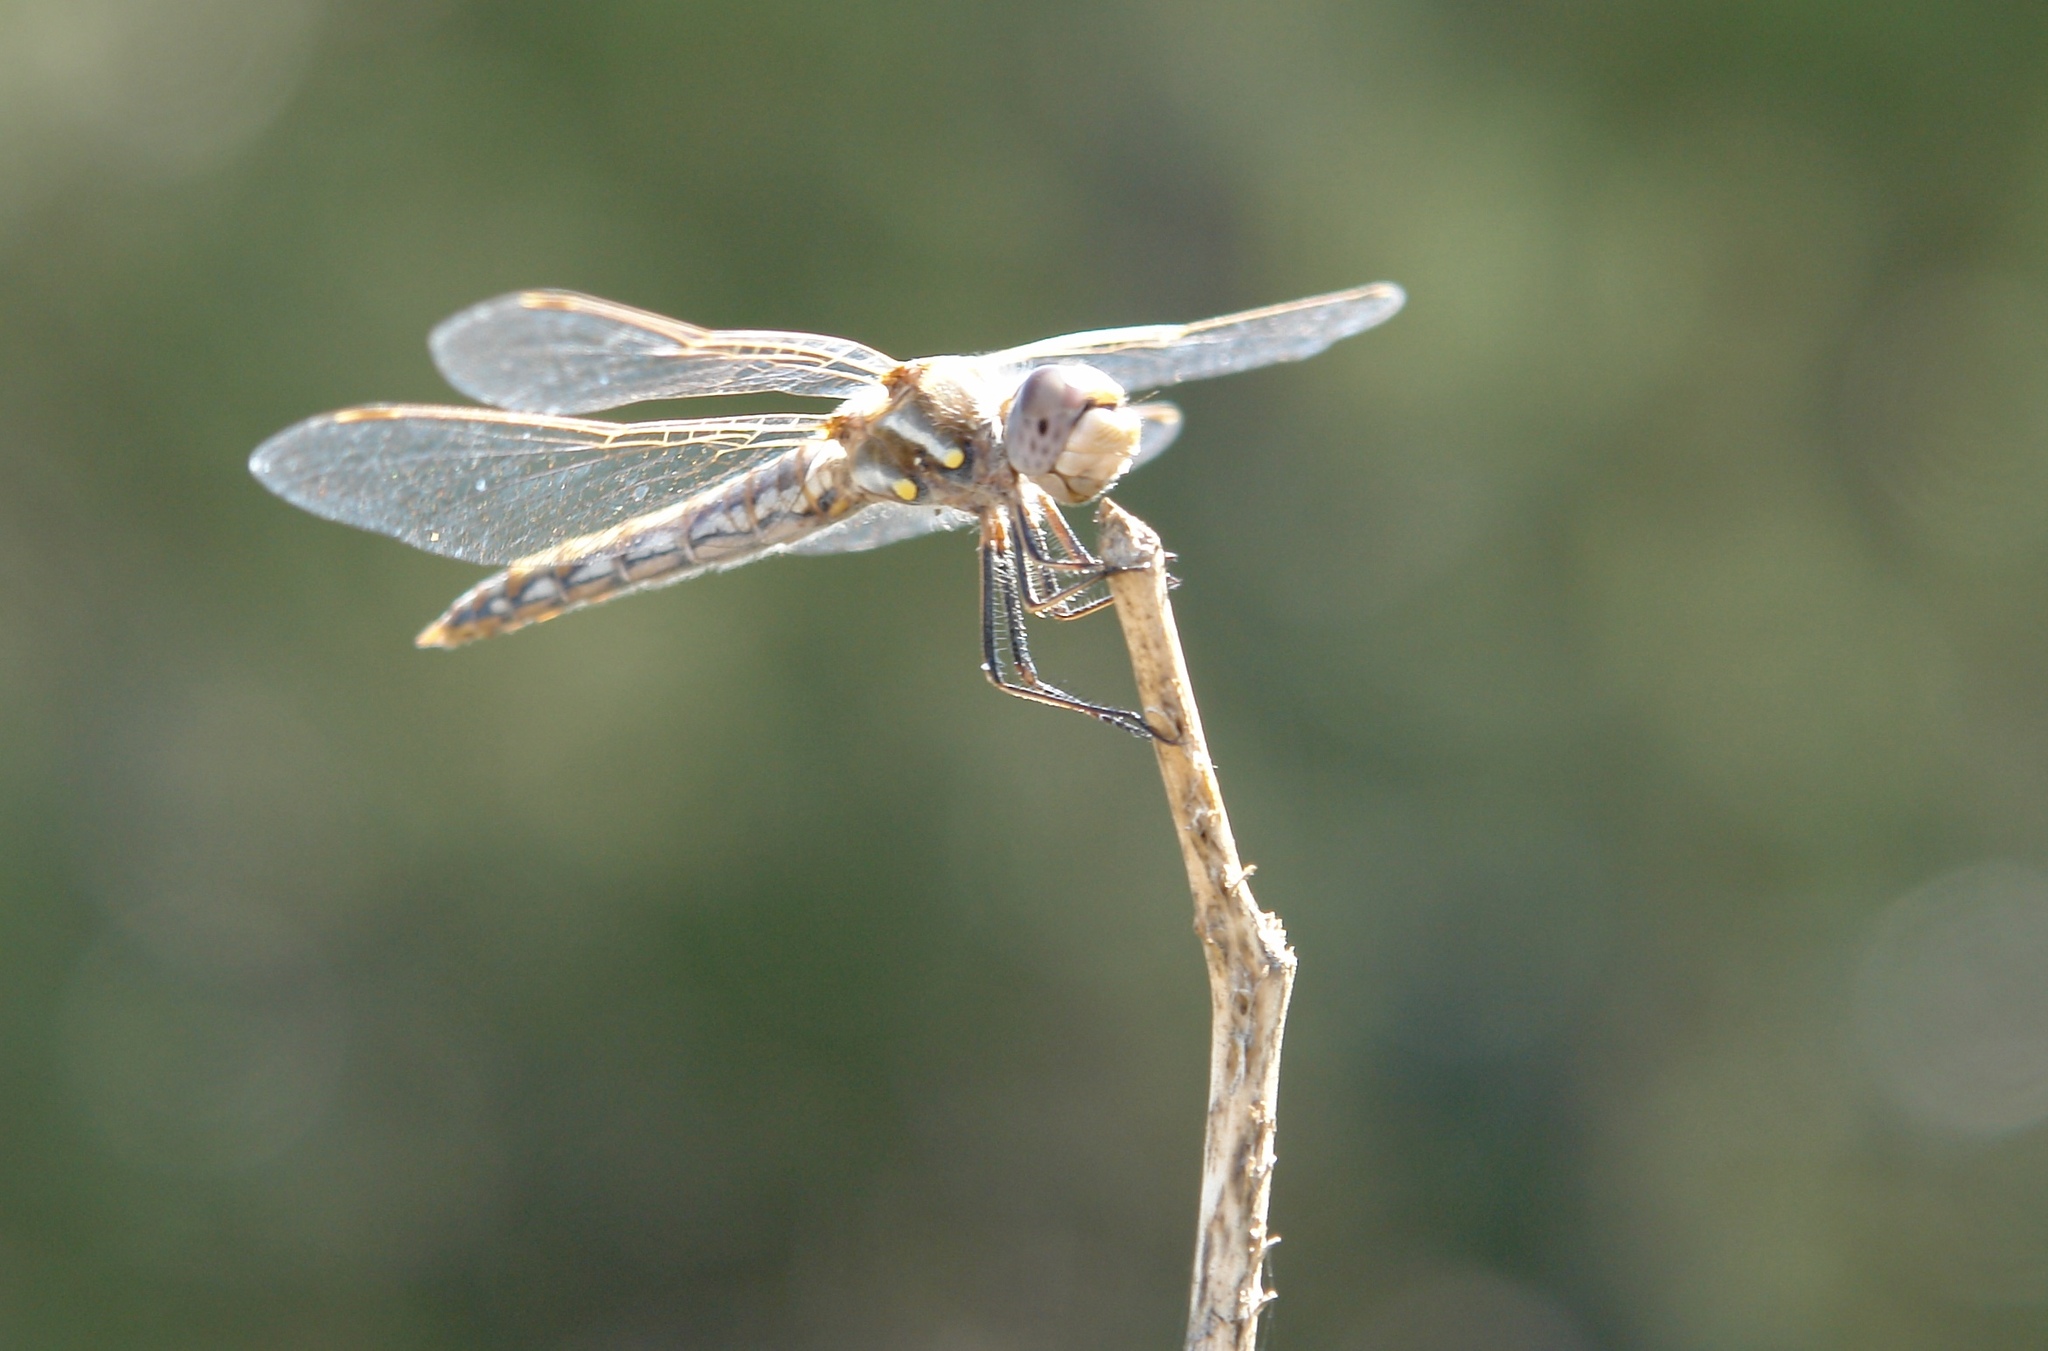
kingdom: Animalia
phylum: Arthropoda
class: Insecta
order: Odonata
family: Libellulidae
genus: Sympetrum
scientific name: Sympetrum corruptum
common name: Variegated meadowhawk
